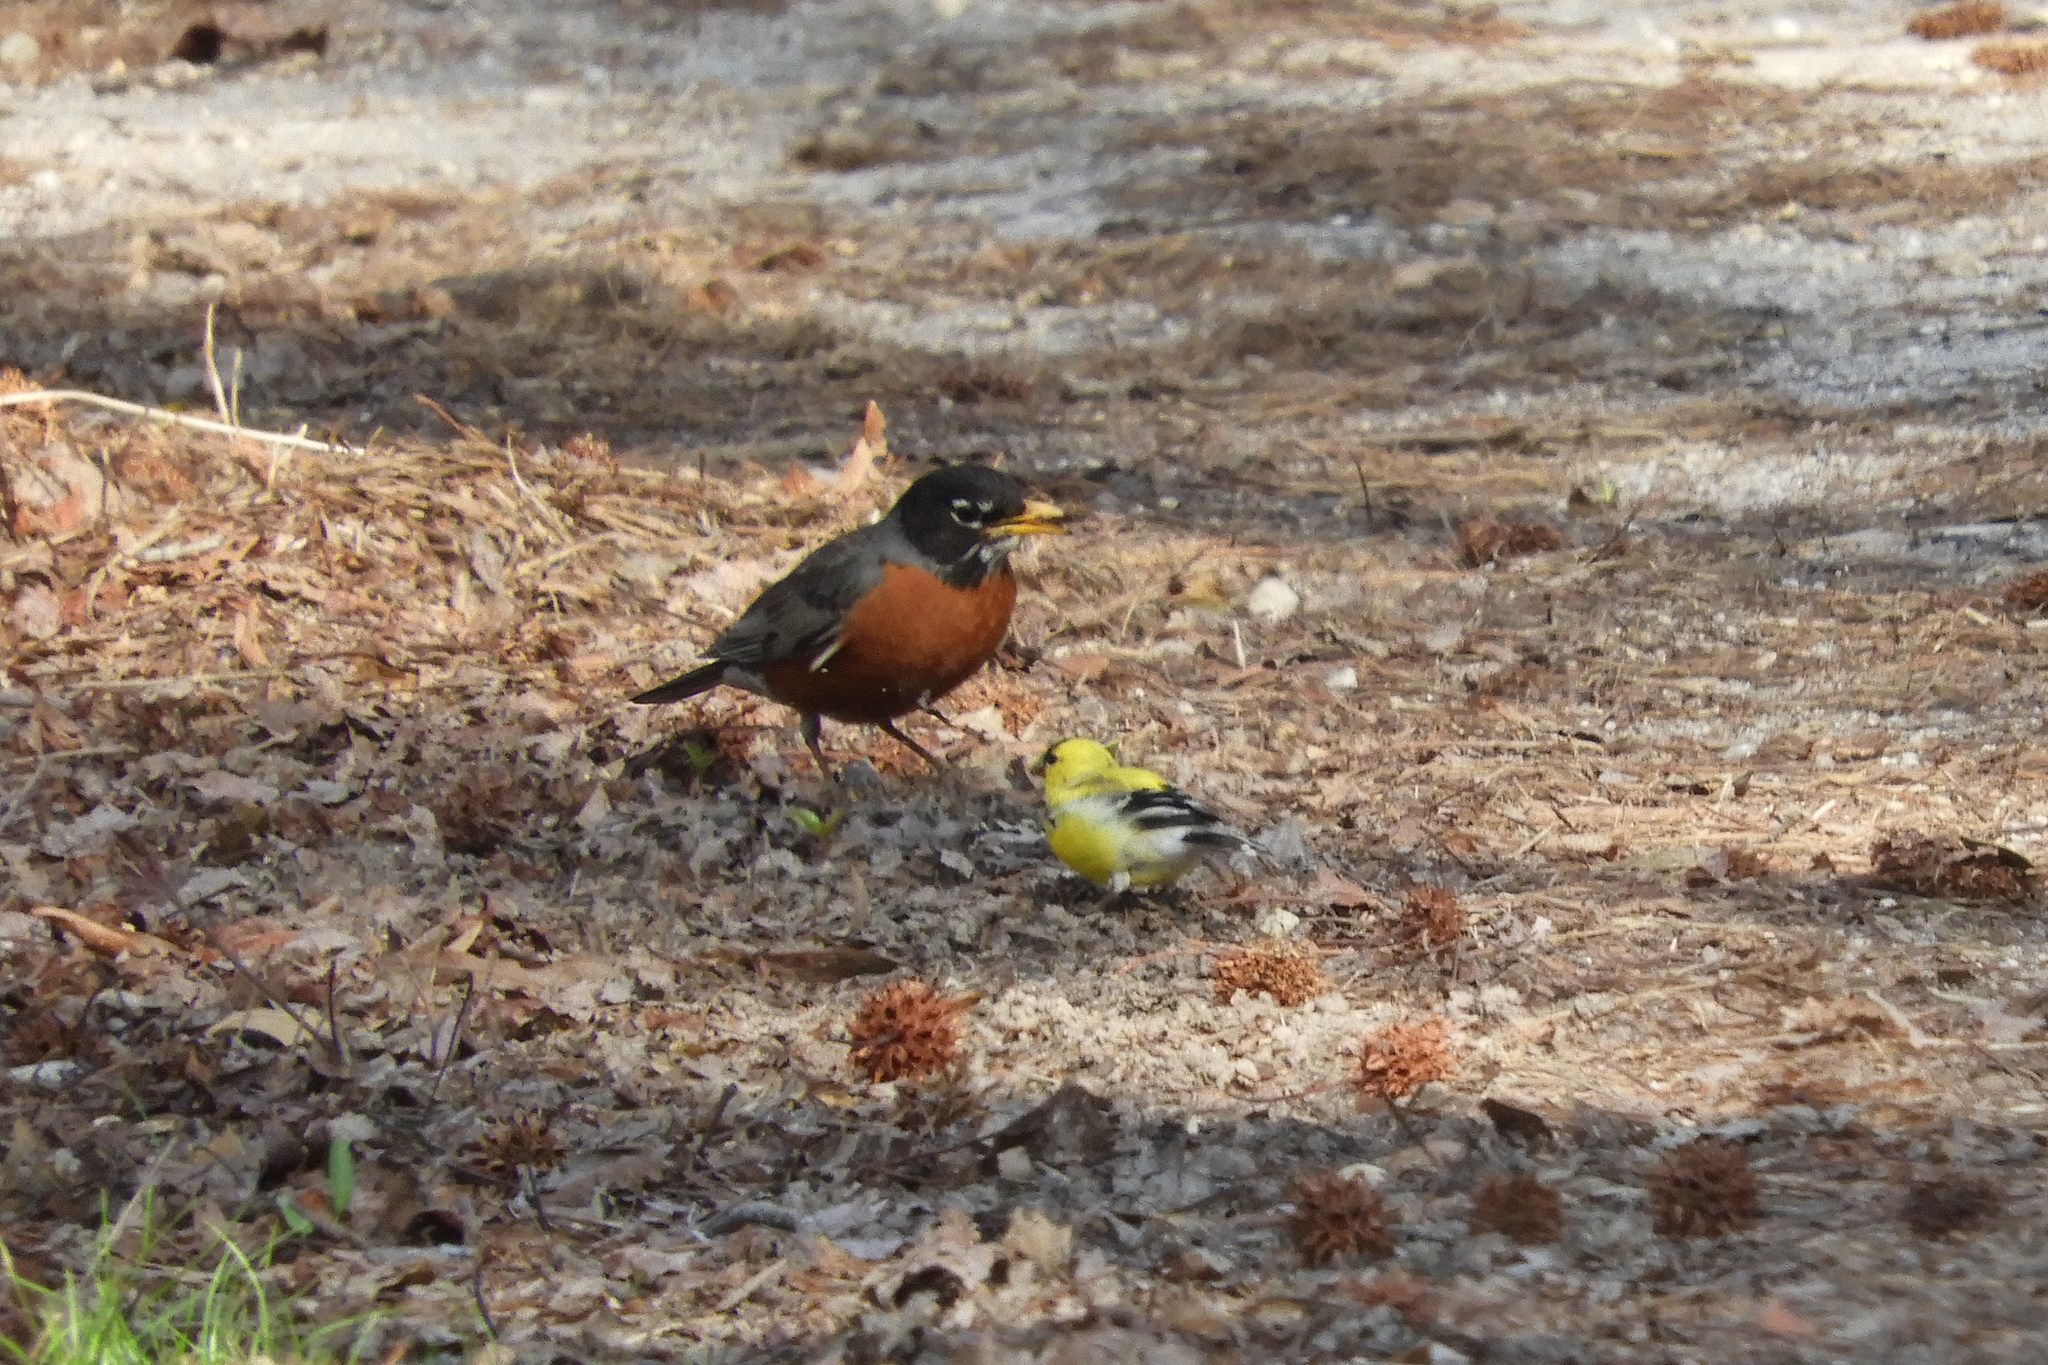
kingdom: Animalia
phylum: Chordata
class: Aves
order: Passeriformes
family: Turdidae
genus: Turdus
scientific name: Turdus migratorius
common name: American robin
